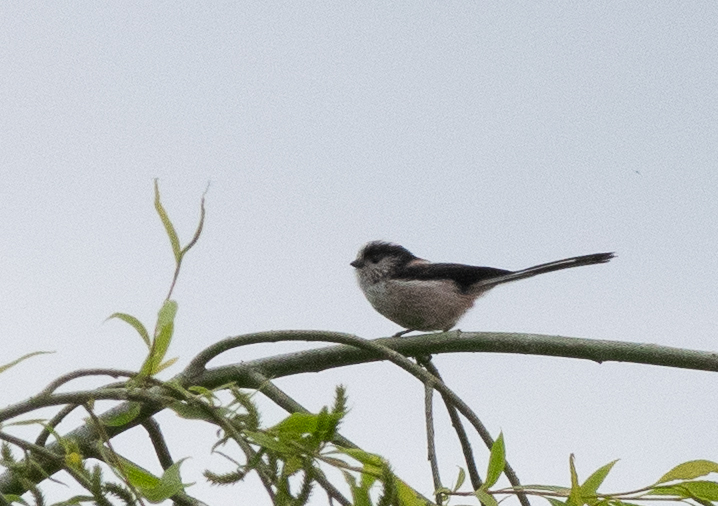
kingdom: Animalia
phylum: Chordata
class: Aves
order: Passeriformes
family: Aegithalidae
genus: Aegithalos
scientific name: Aegithalos caudatus
